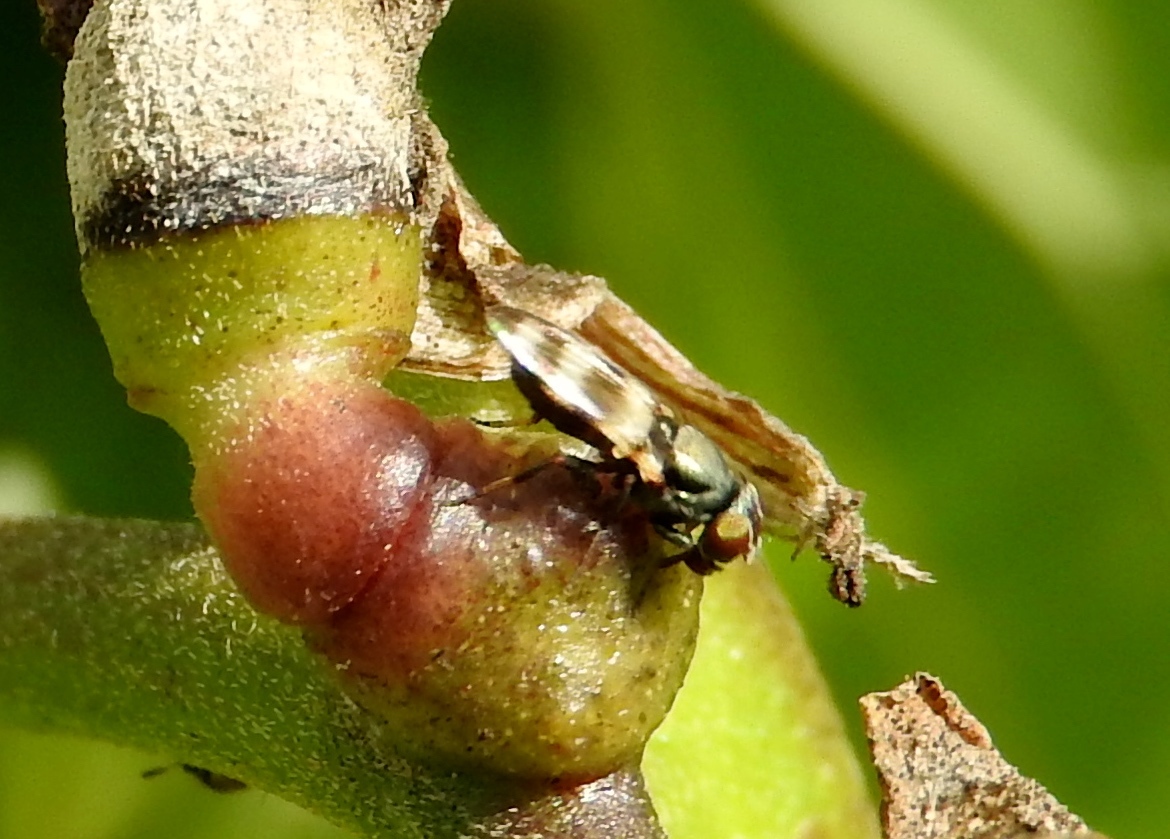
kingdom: Animalia
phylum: Arthropoda
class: Insecta
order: Diptera
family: Ulidiidae
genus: Chaetopsis
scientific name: Chaetopsis
